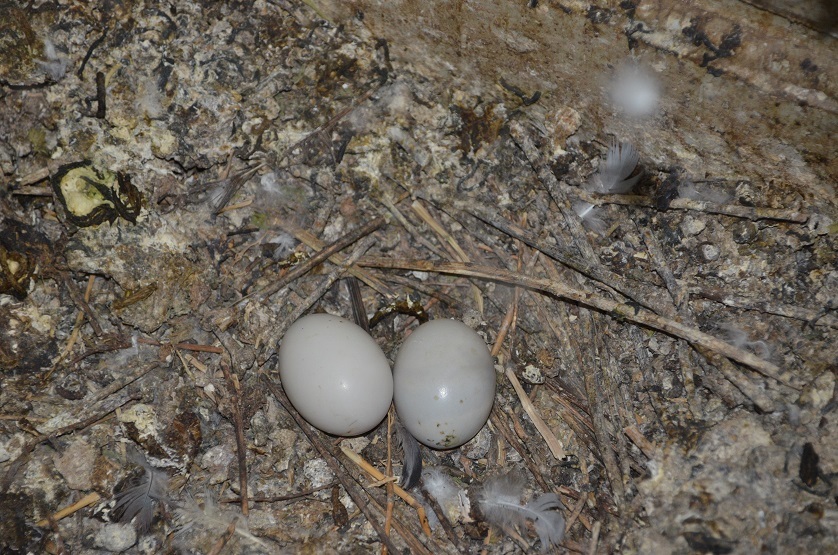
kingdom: Animalia
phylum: Chordata
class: Aves
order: Columbiformes
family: Columbidae
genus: Columba
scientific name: Columba livia
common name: Rock pigeon
